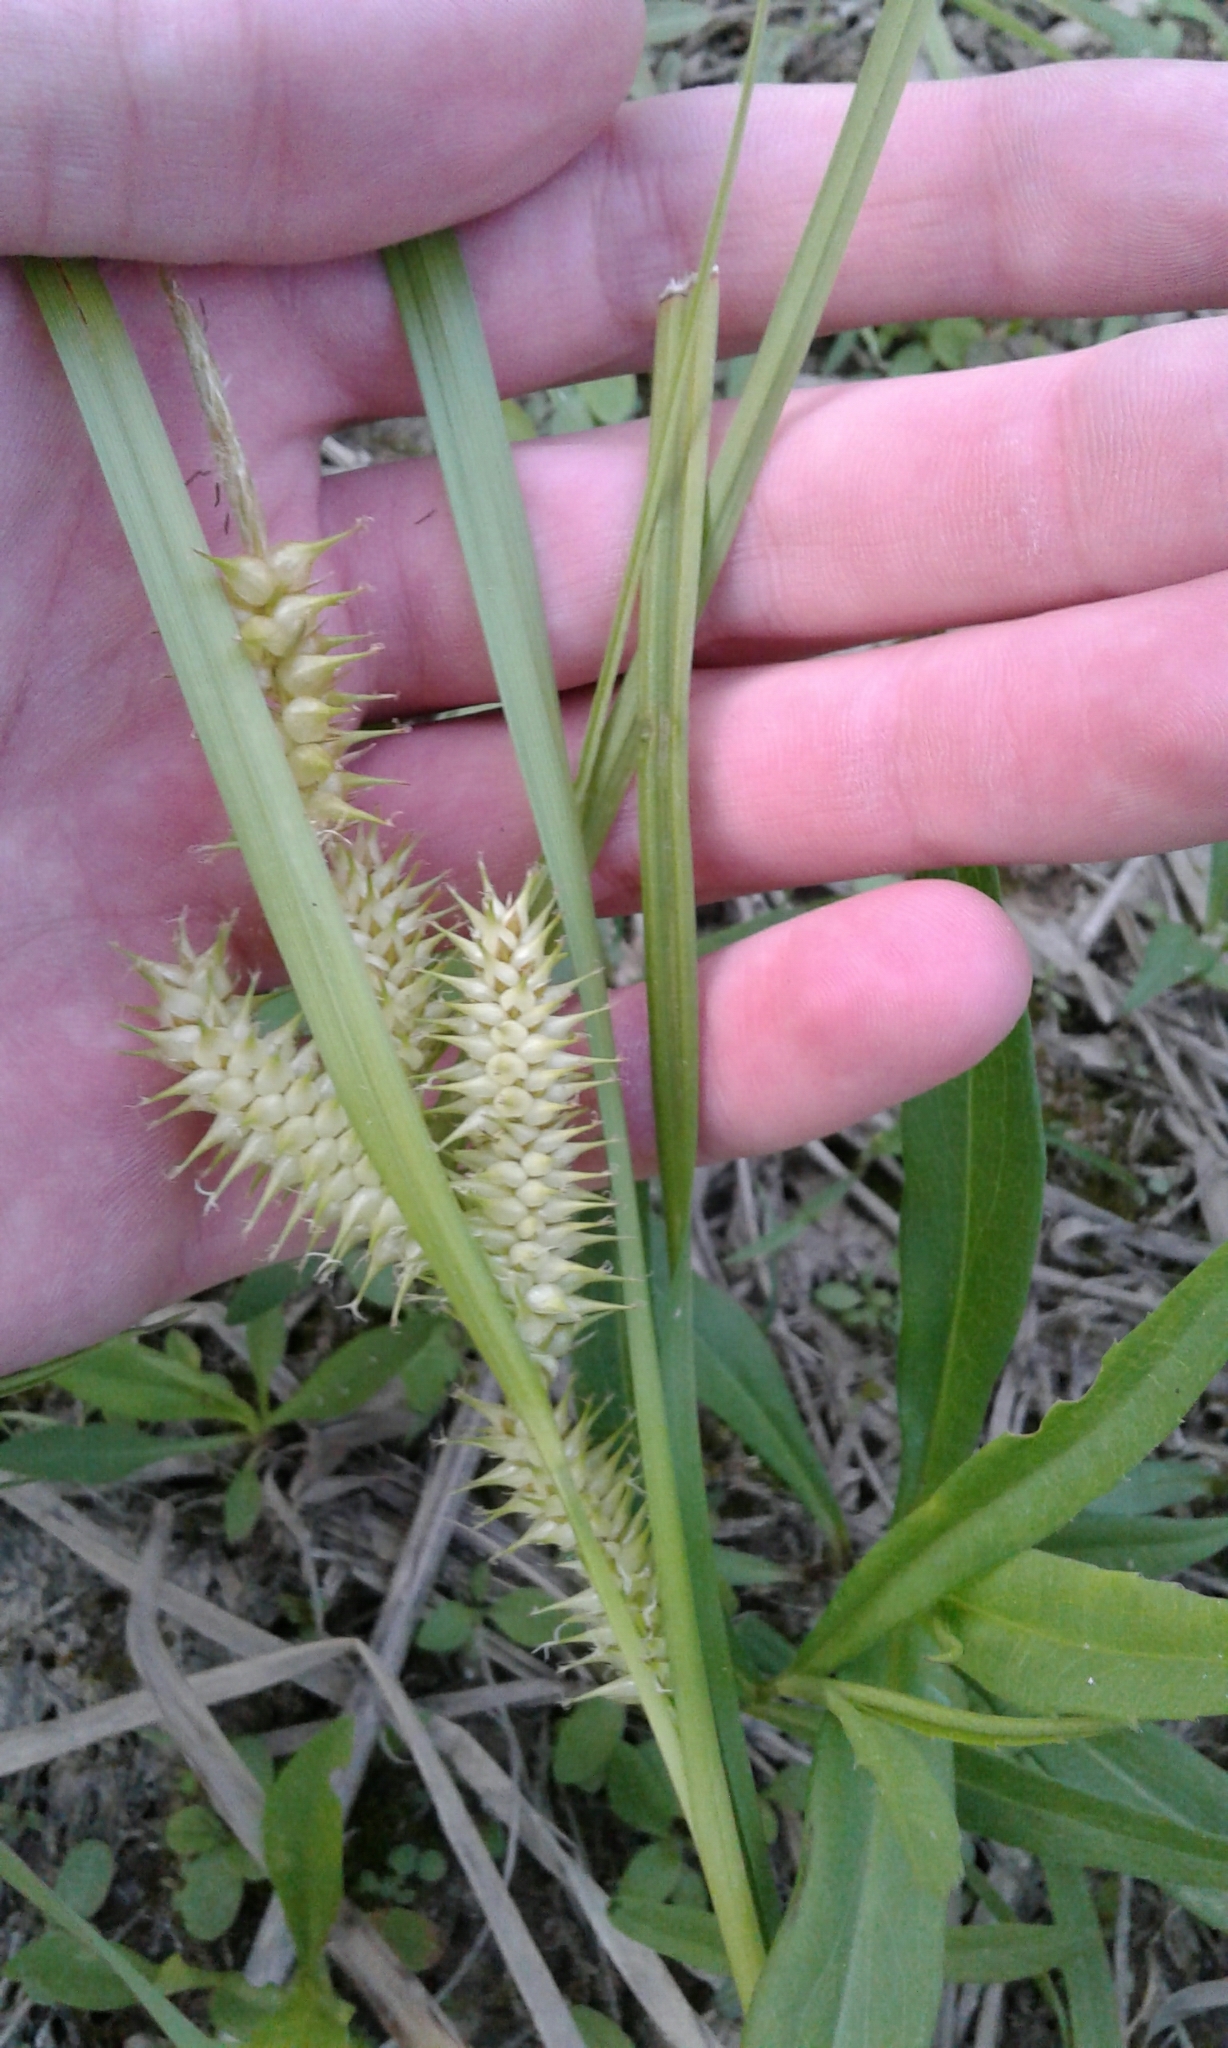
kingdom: Plantae
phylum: Tracheophyta
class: Liliopsida
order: Poales
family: Cyperaceae
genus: Carex
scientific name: Carex retrorsa
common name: Knot-sheath sedge
